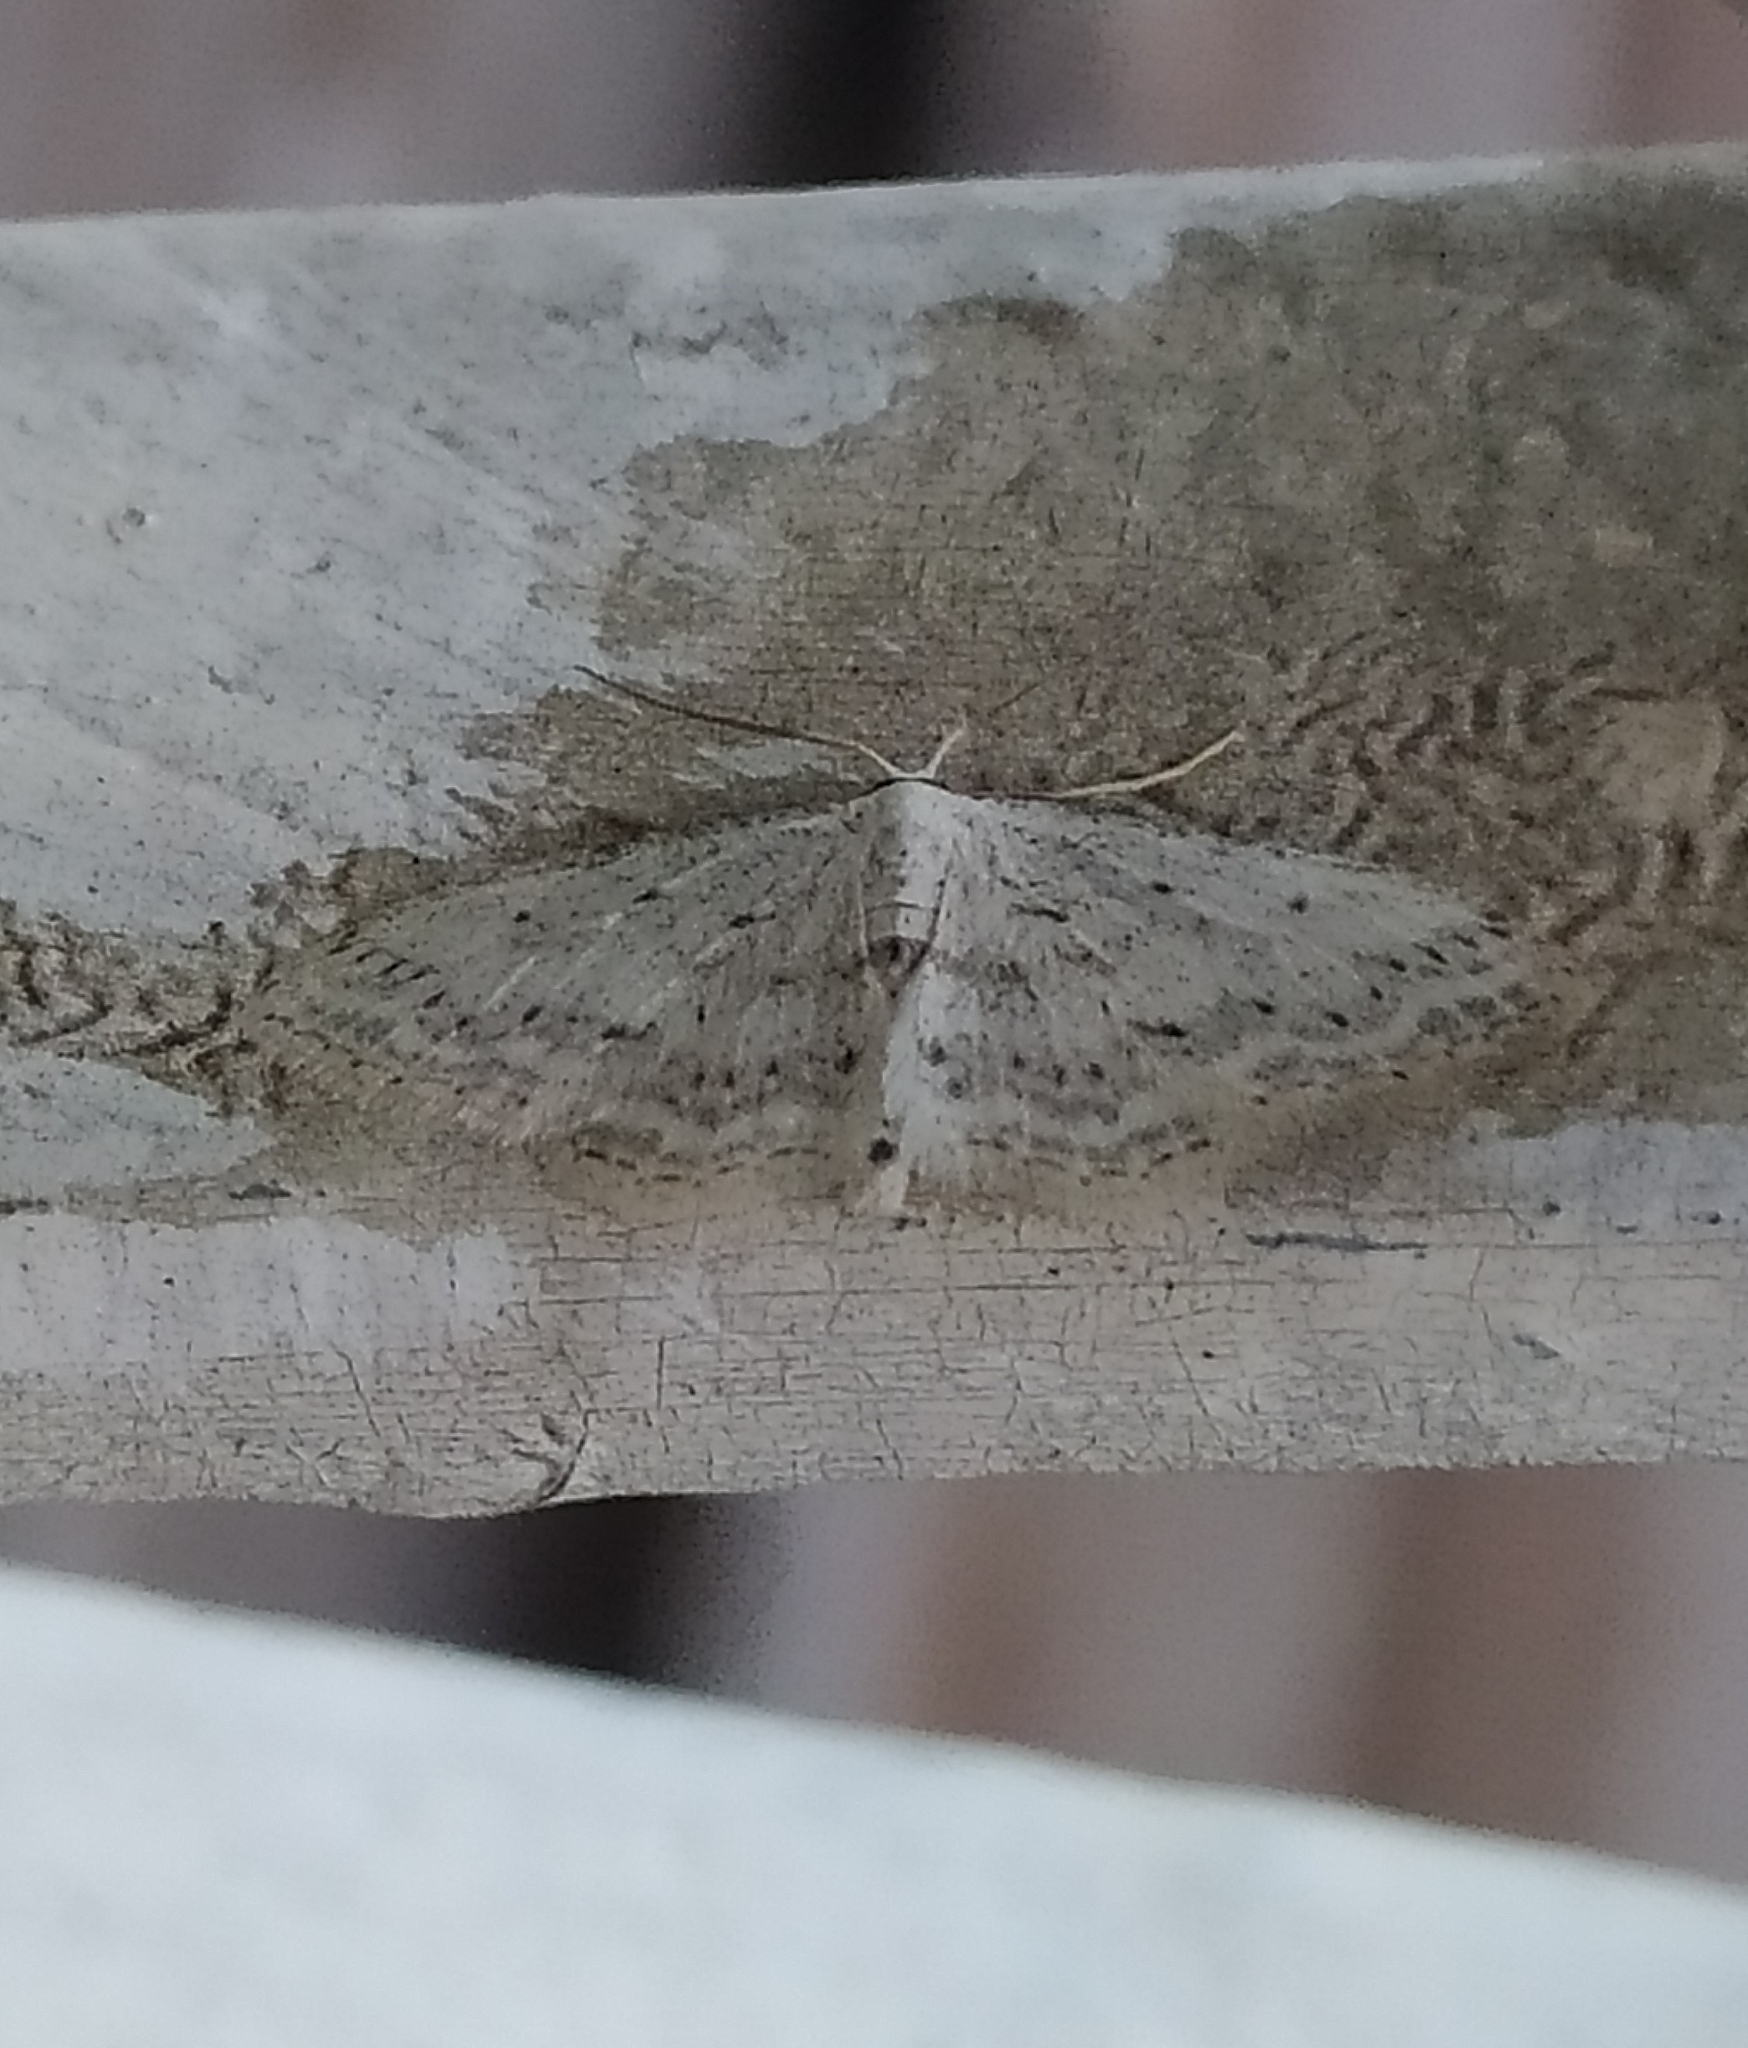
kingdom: Animalia
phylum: Arthropoda
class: Insecta
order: Lepidoptera
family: Geometridae
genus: Idaea
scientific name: Idaea seriata
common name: Small dusty wave
